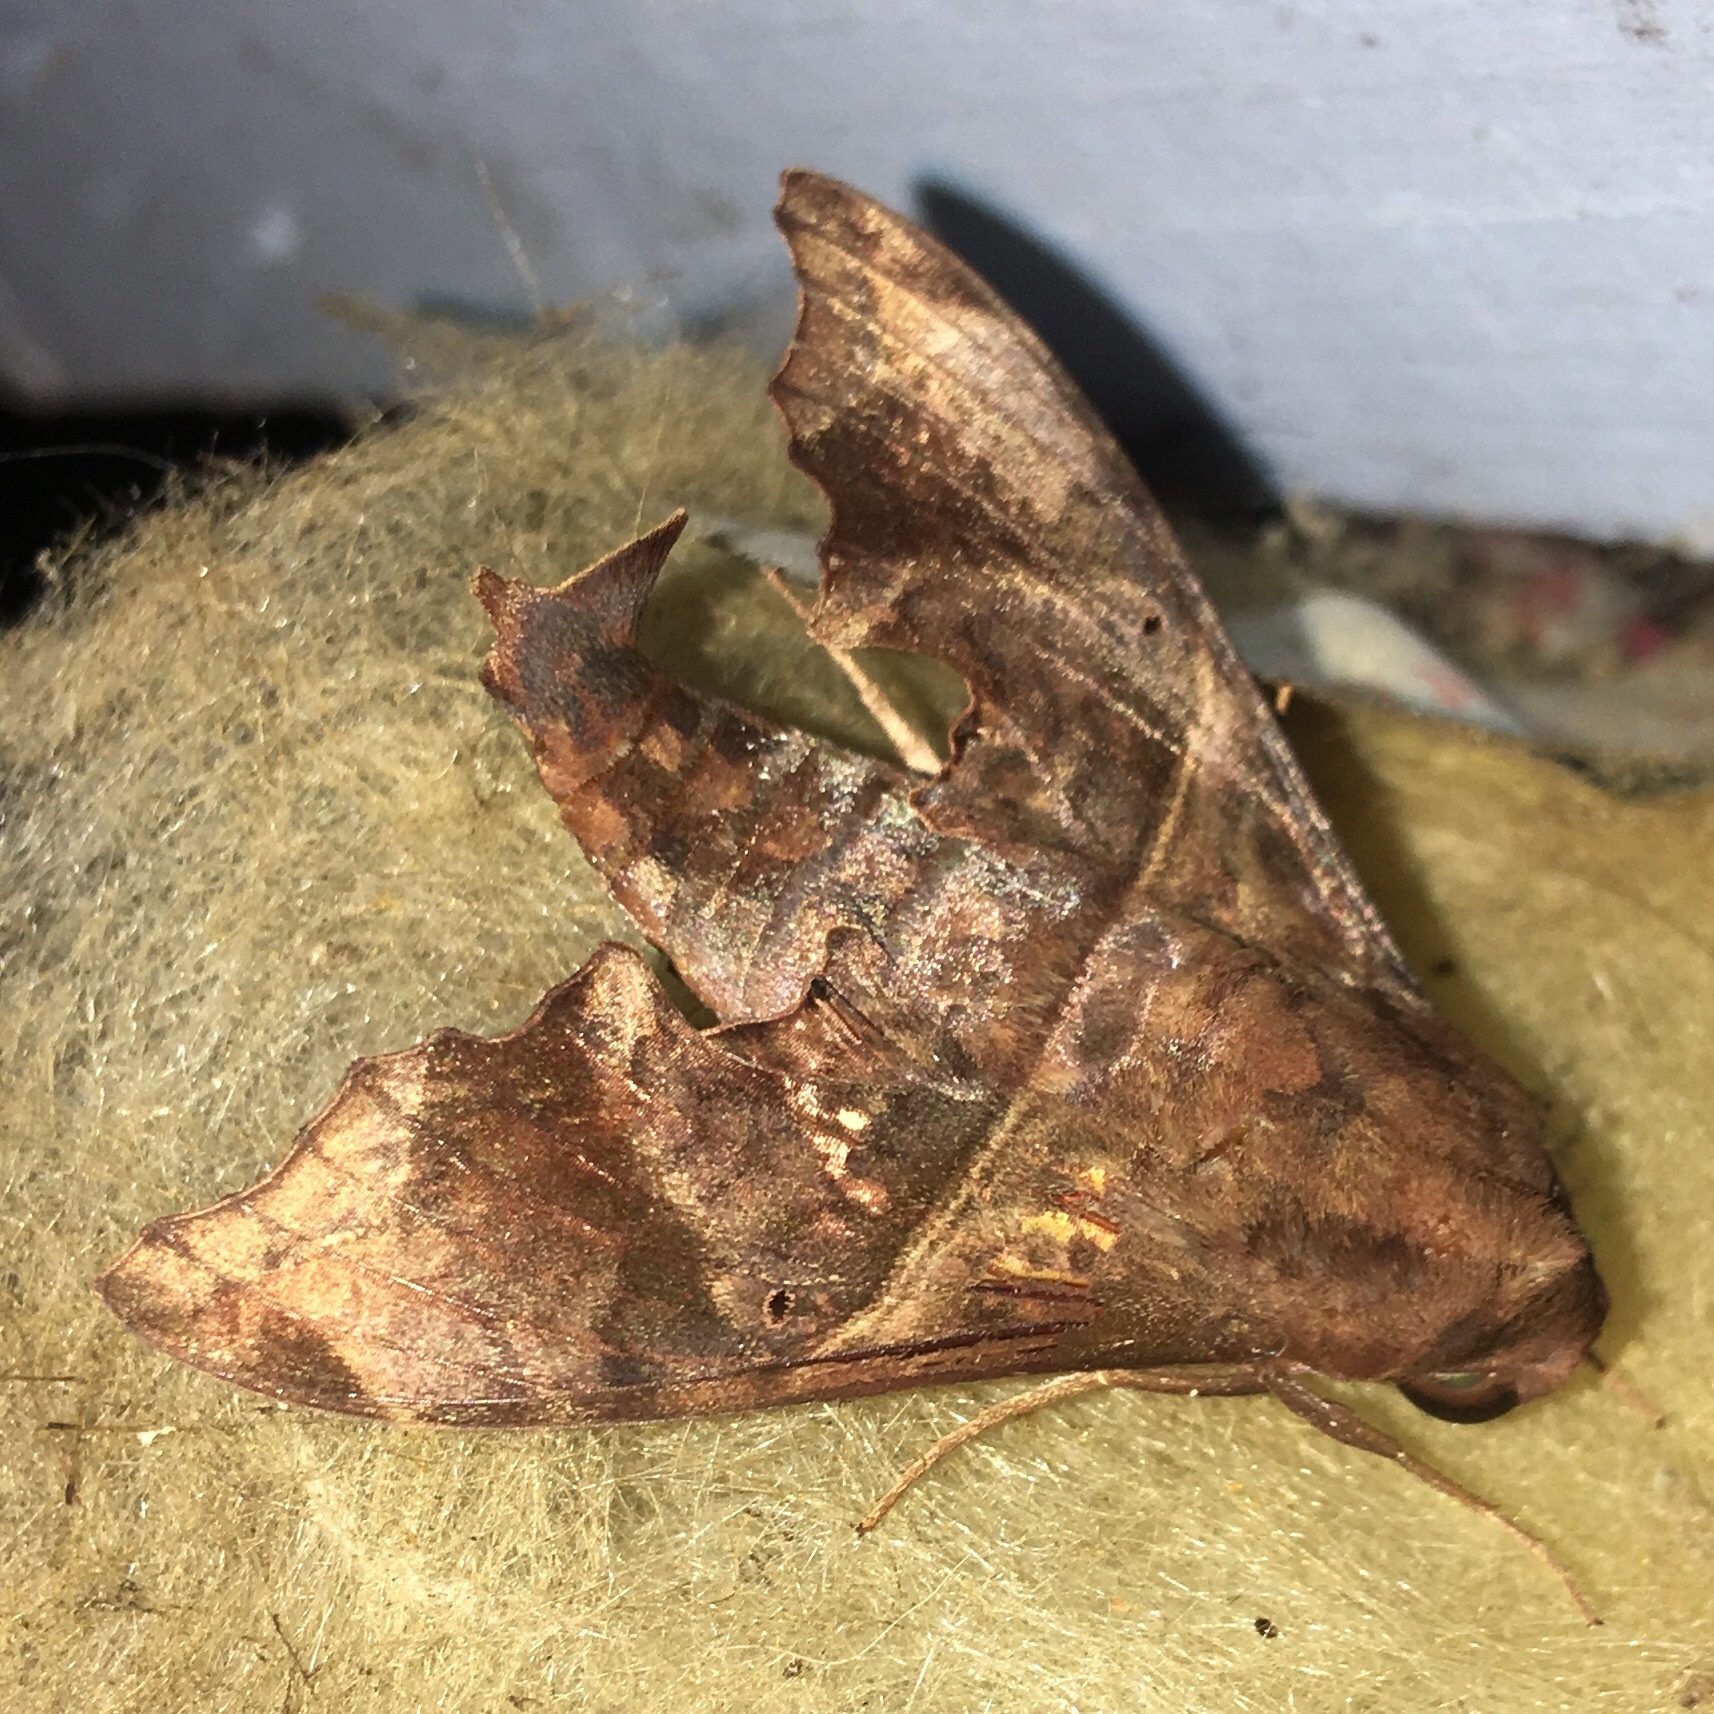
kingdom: Animalia
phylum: Arthropoda
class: Insecta
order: Lepidoptera
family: Sphingidae
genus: Enyo
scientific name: Enyo lugubris
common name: Mournful sphinx
